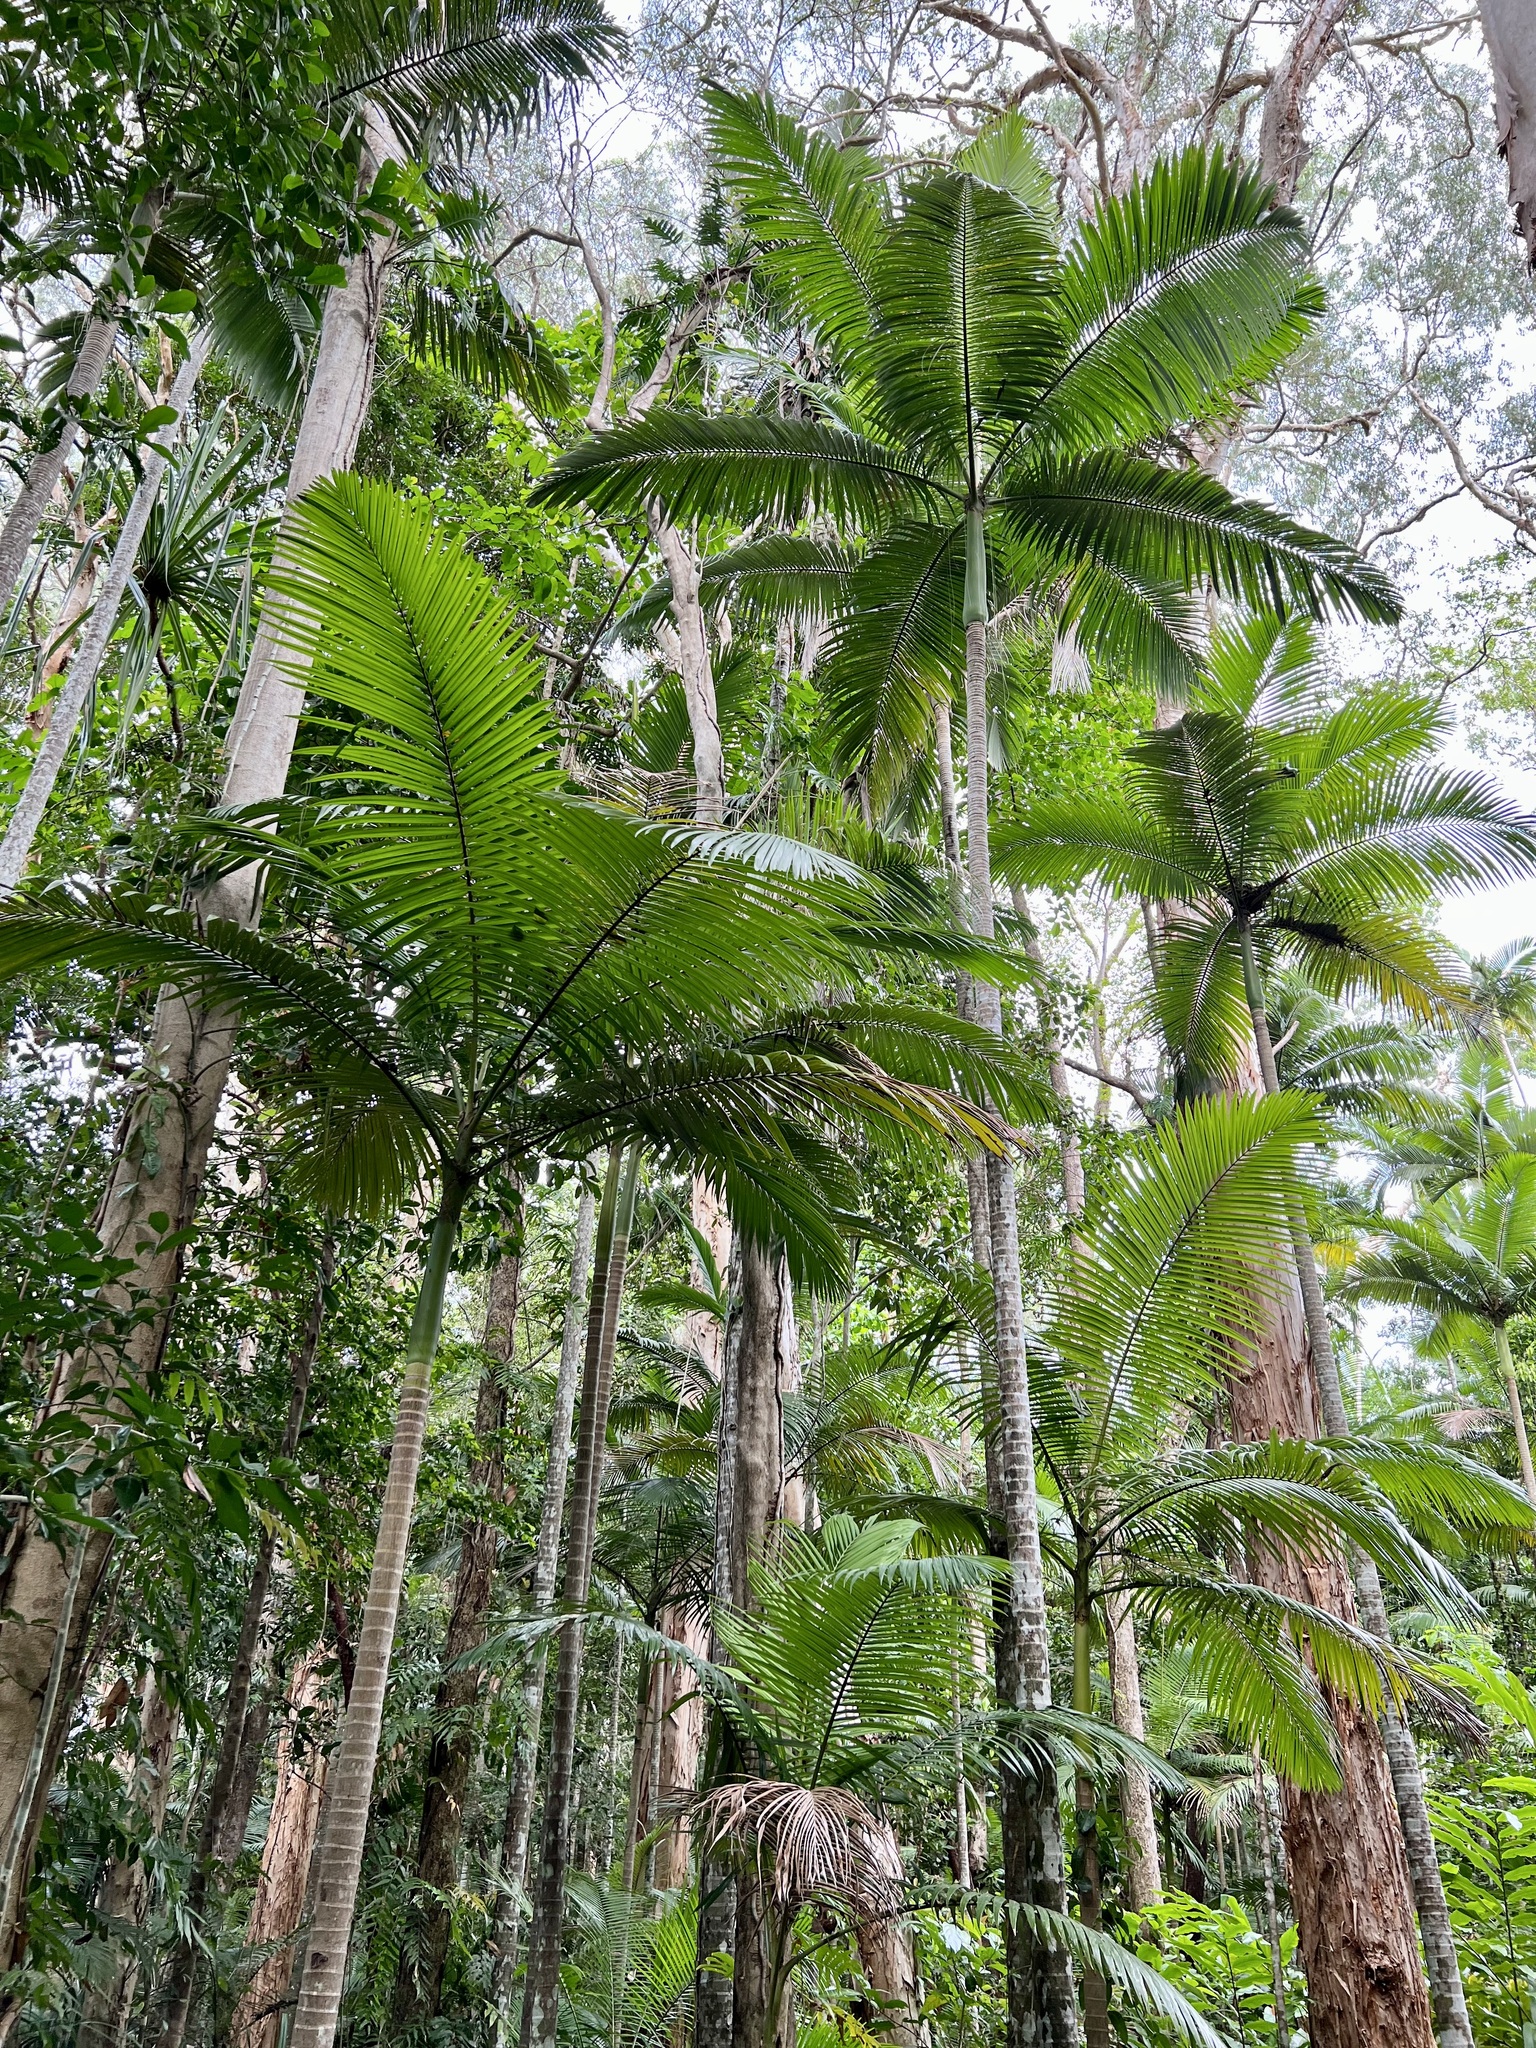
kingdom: Plantae
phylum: Tracheophyta
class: Liliopsida
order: Arecales
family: Arecaceae
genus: Archontophoenix
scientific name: Archontophoenix alexandrae
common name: Alexandra palm
